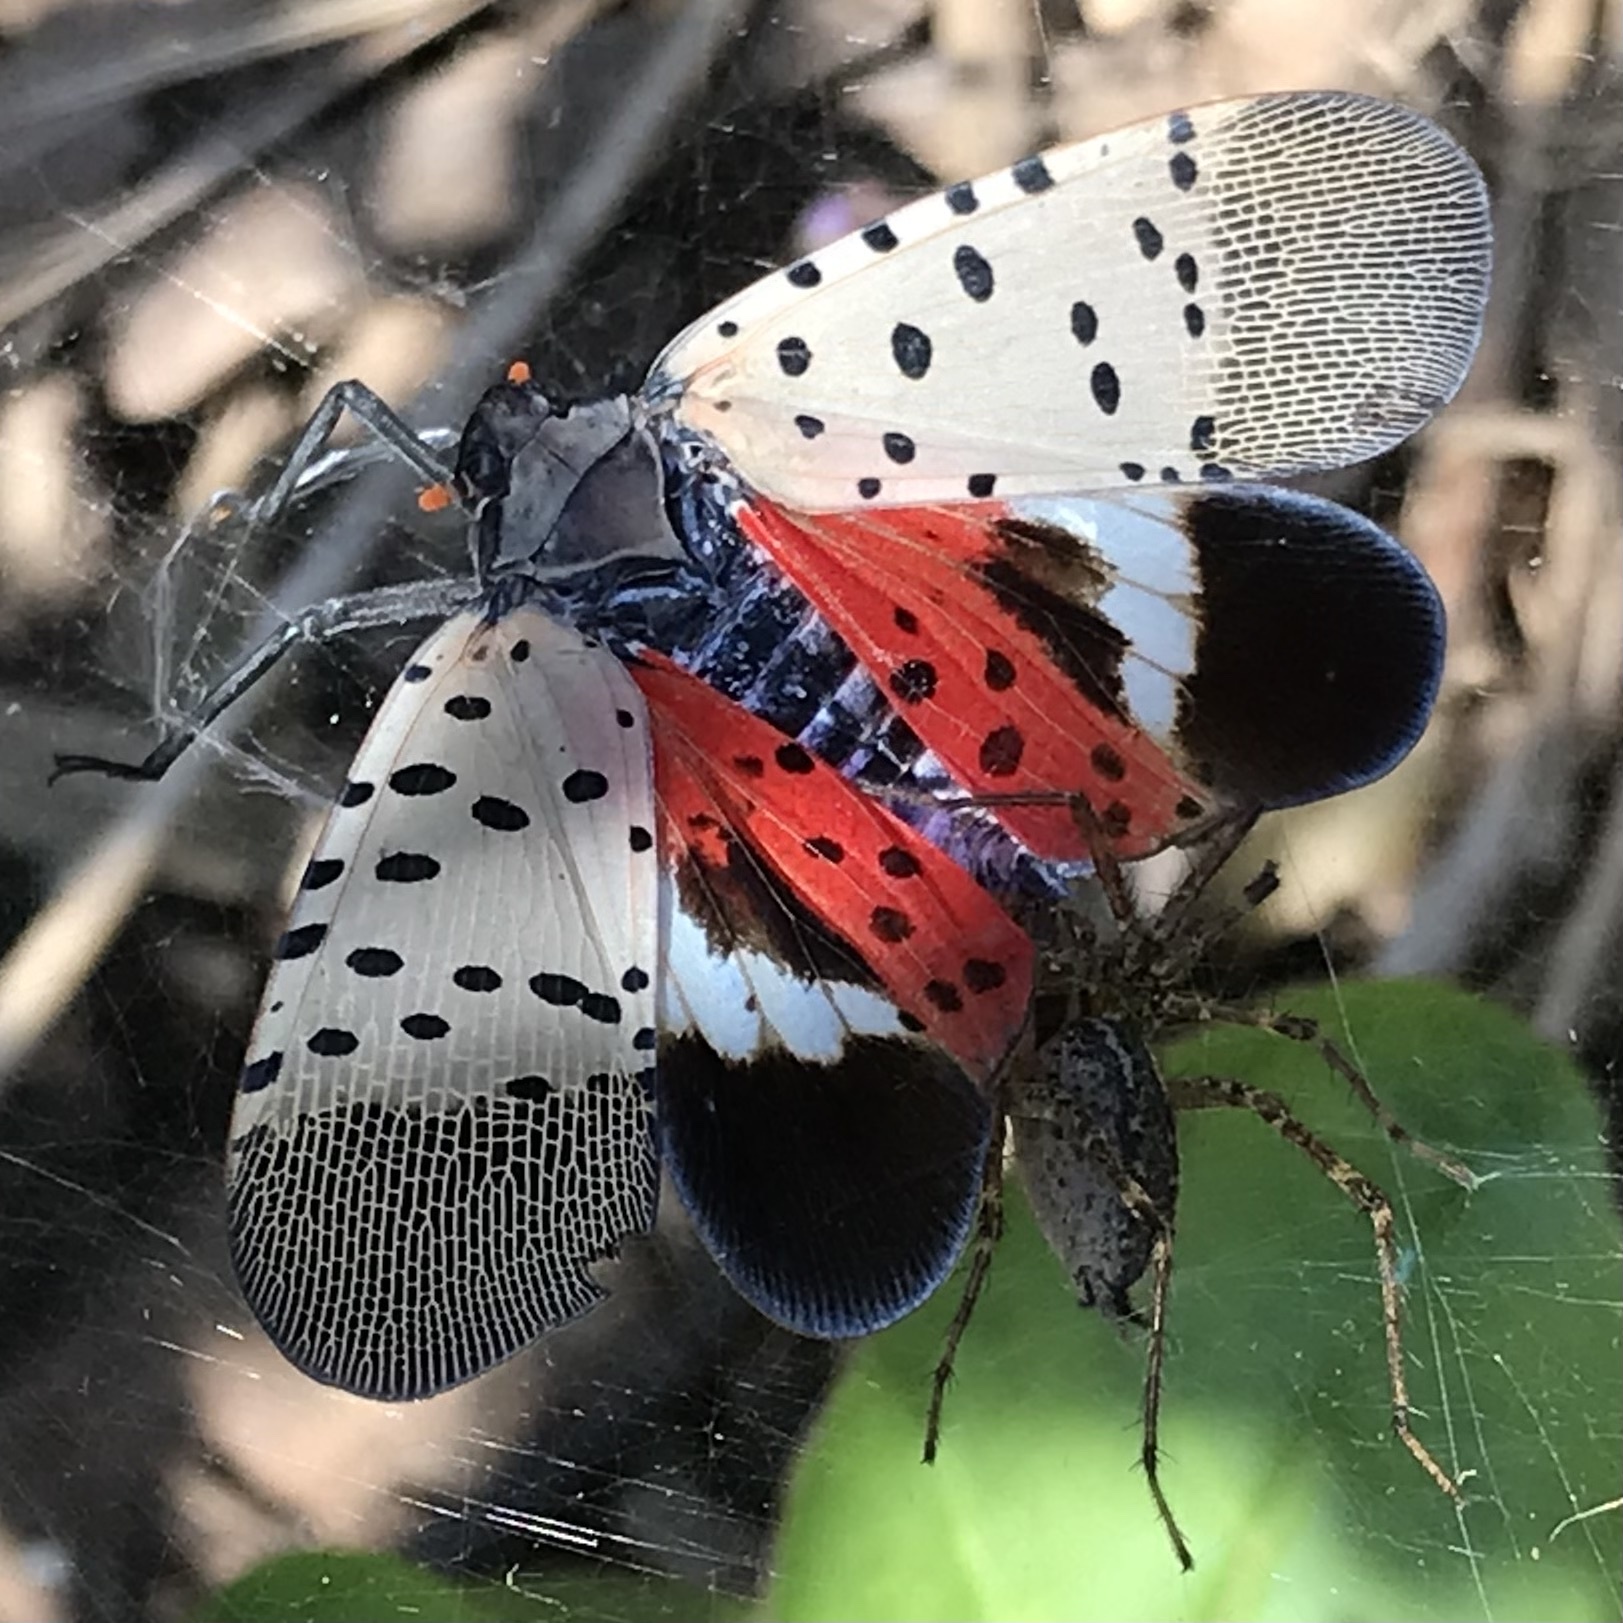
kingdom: Animalia
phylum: Arthropoda
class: Insecta
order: Hemiptera
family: Fulgoridae
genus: Lycorma
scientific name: Lycorma delicatula
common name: Spotted lanternfly
